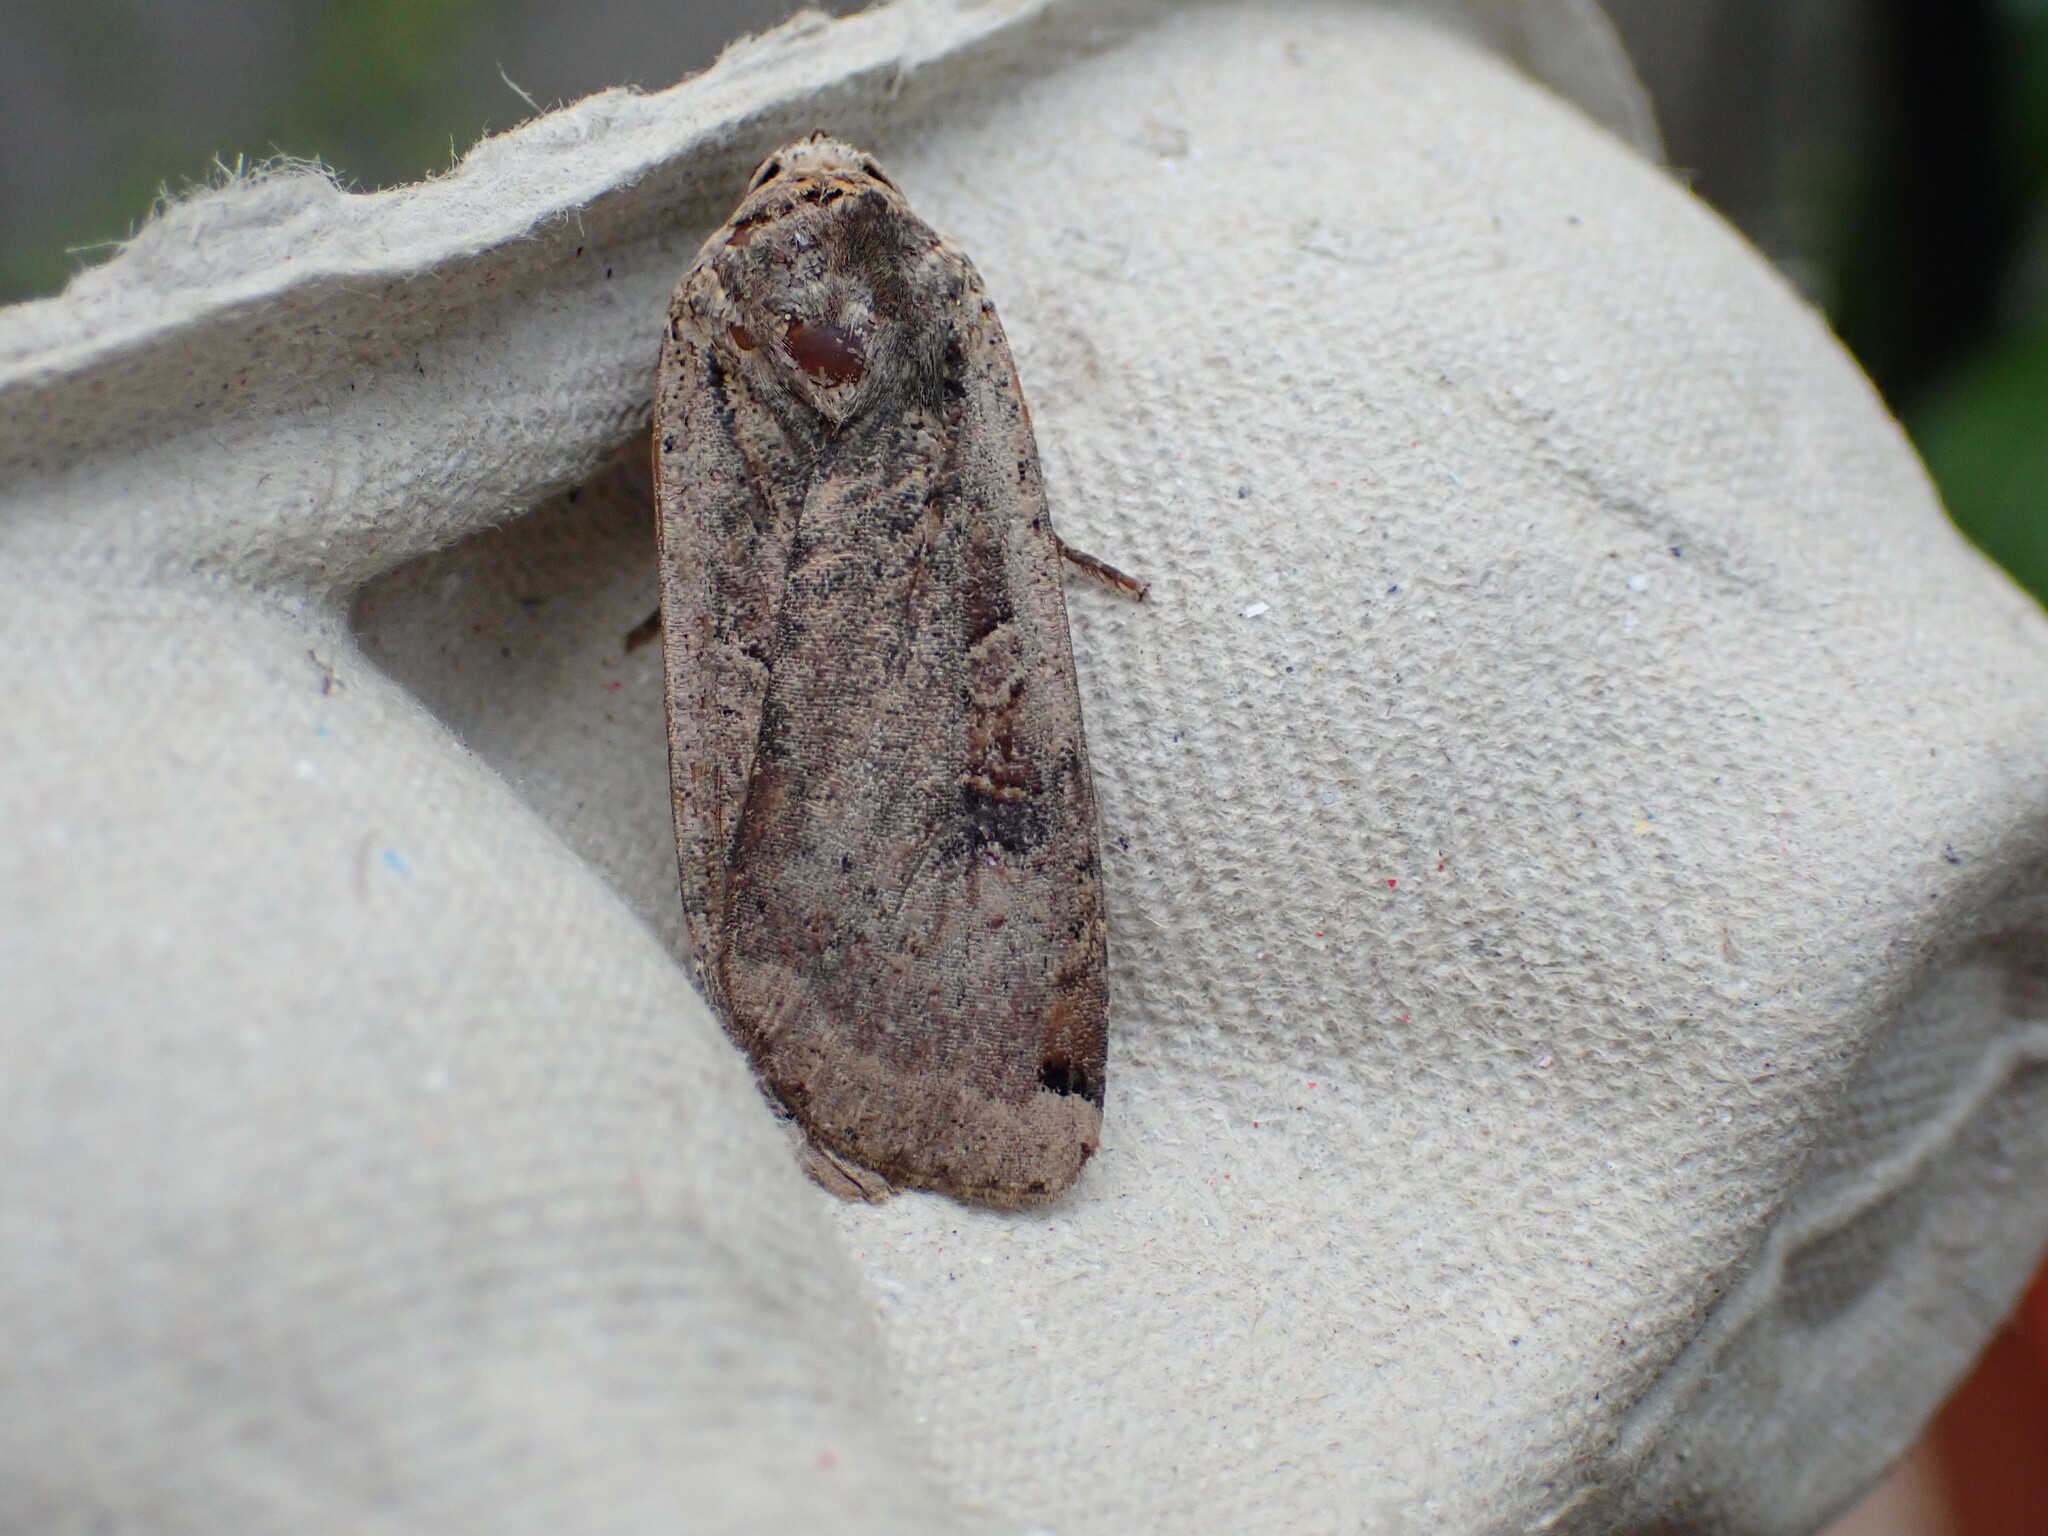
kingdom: Animalia
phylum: Arthropoda
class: Insecta
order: Lepidoptera
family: Noctuidae
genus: Noctua
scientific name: Noctua pronuba
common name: Large yellow underwing
